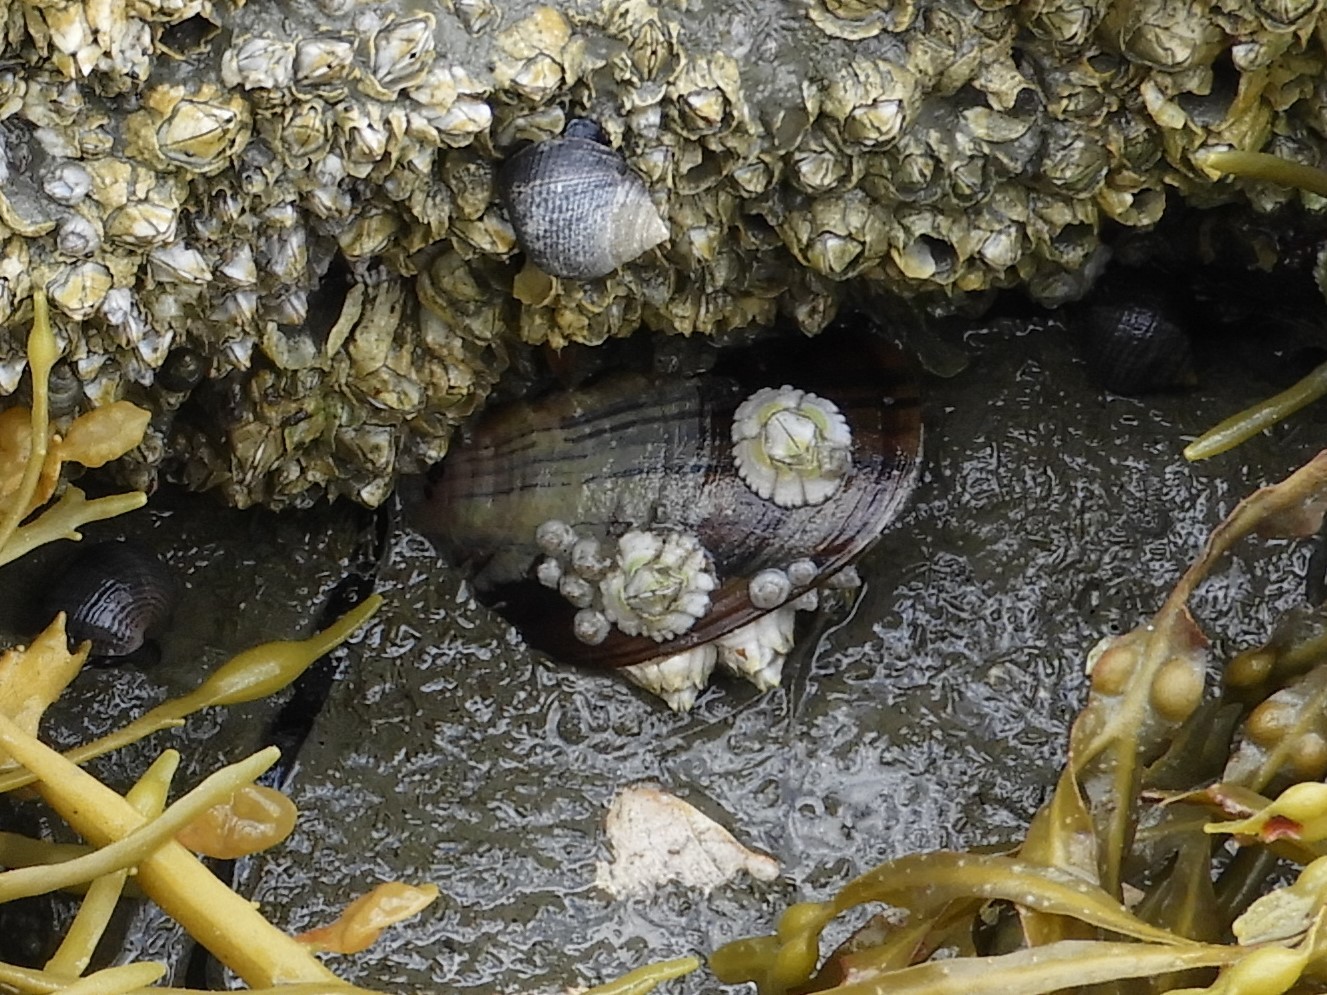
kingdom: Animalia
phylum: Mollusca
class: Bivalvia
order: Mytilida
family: Mytilidae
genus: Mytilus
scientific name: Mytilus edulis
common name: Blue mussel
